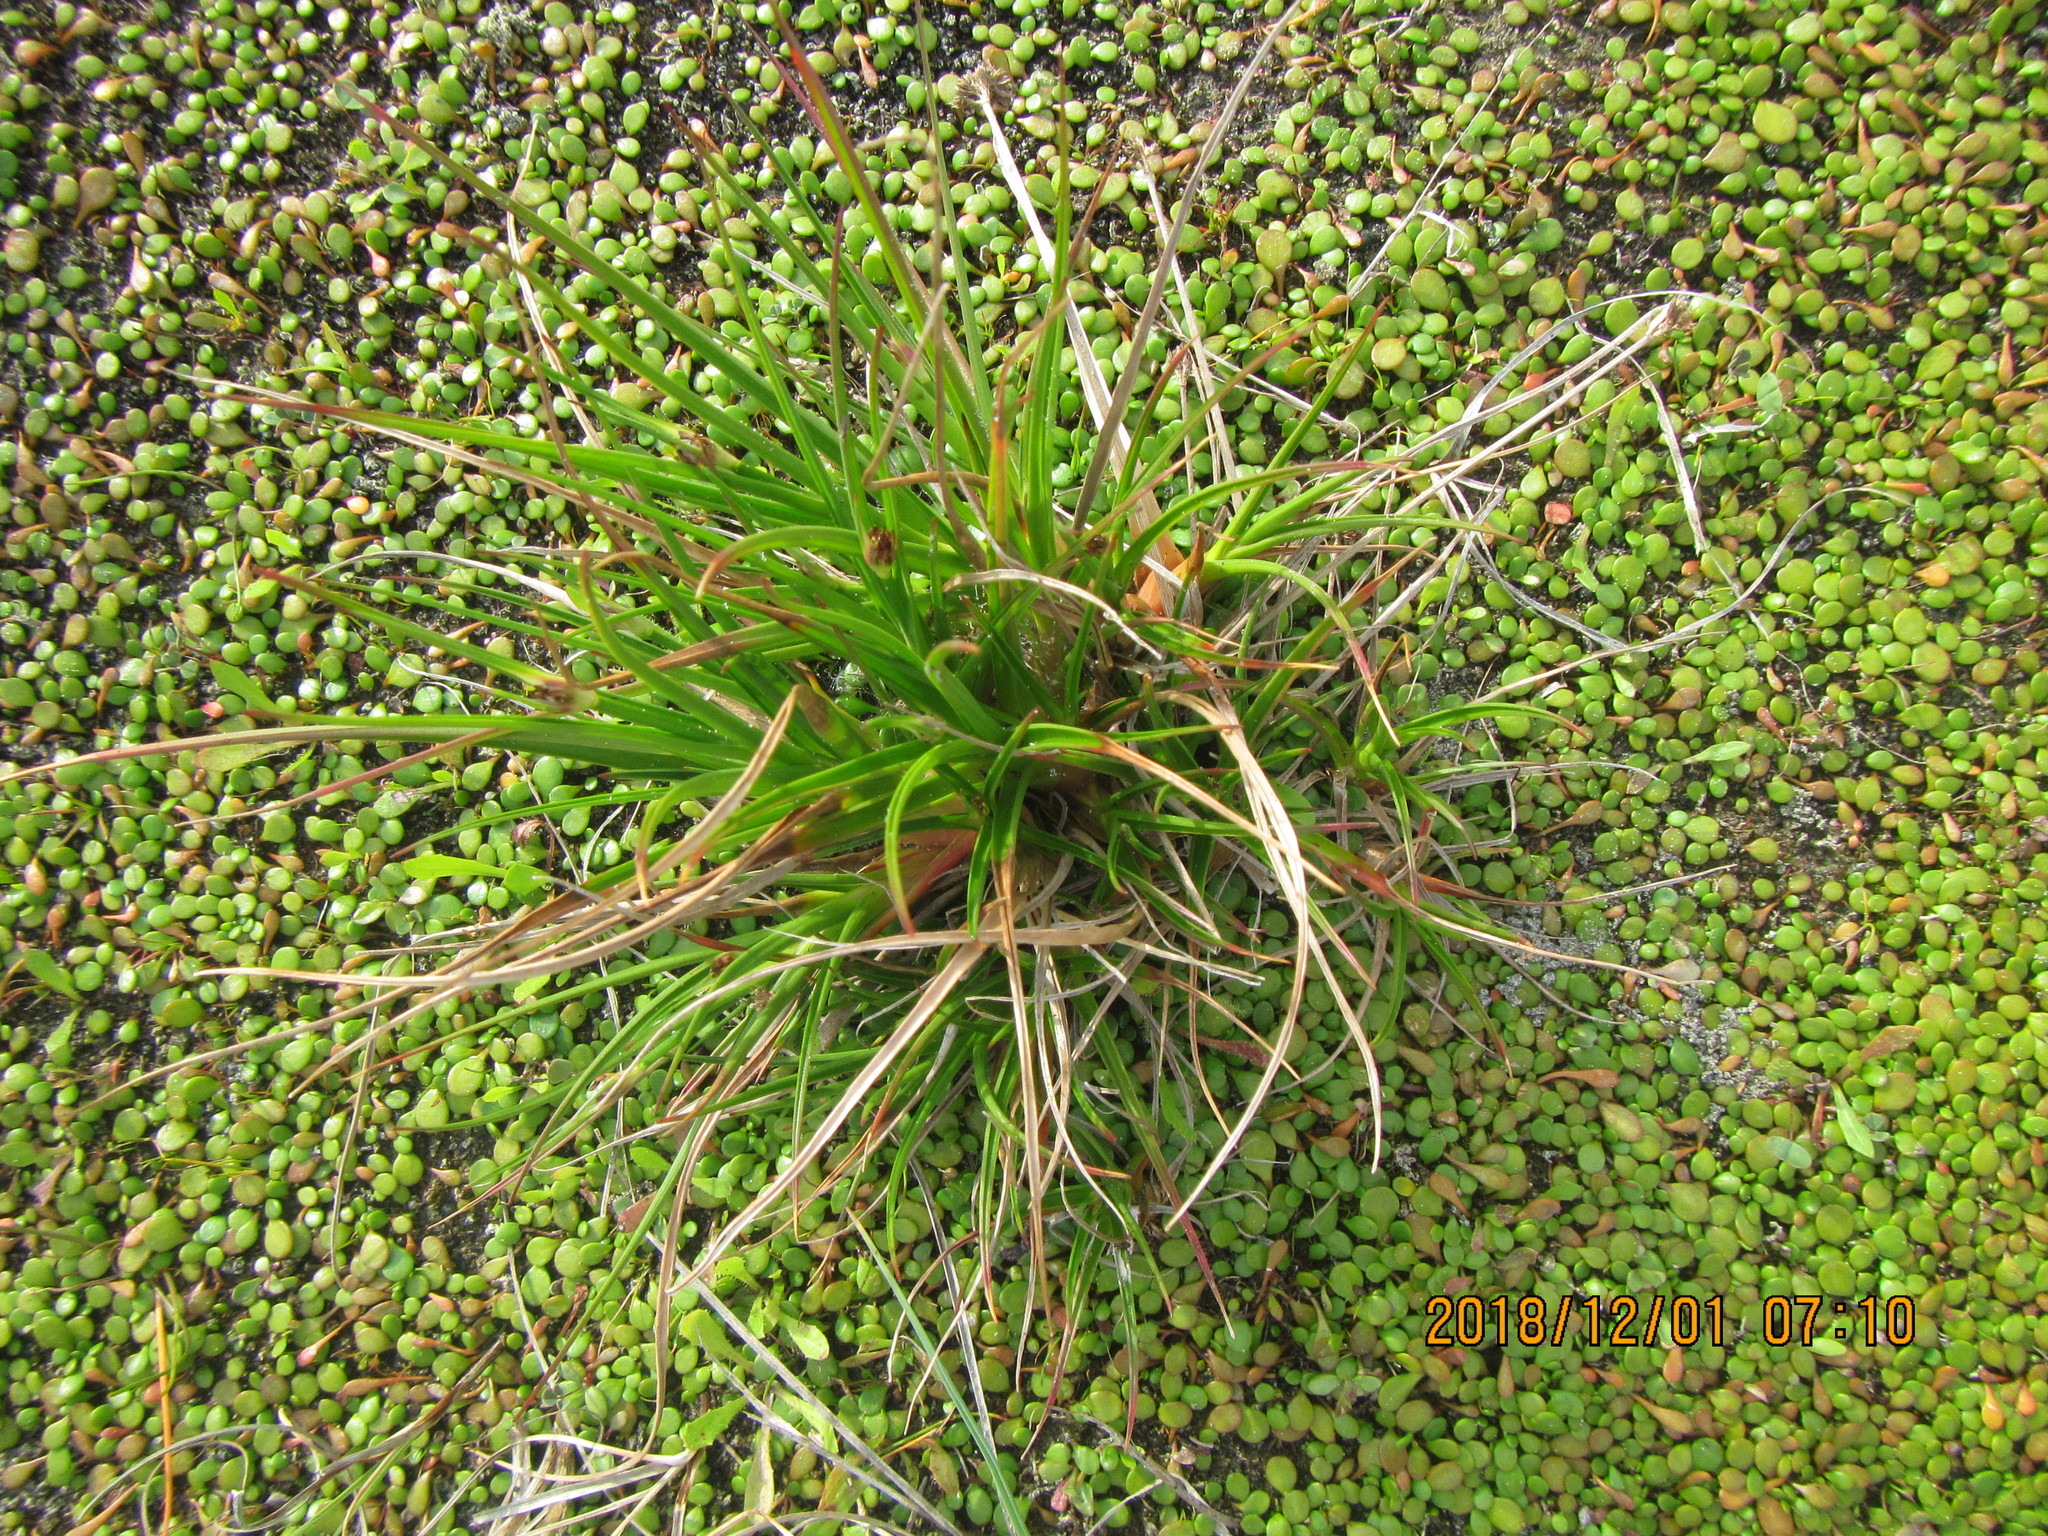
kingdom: Plantae
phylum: Tracheophyta
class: Magnoliopsida
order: Asterales
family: Goodeniaceae
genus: Goodenia
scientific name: Goodenia heenanii
